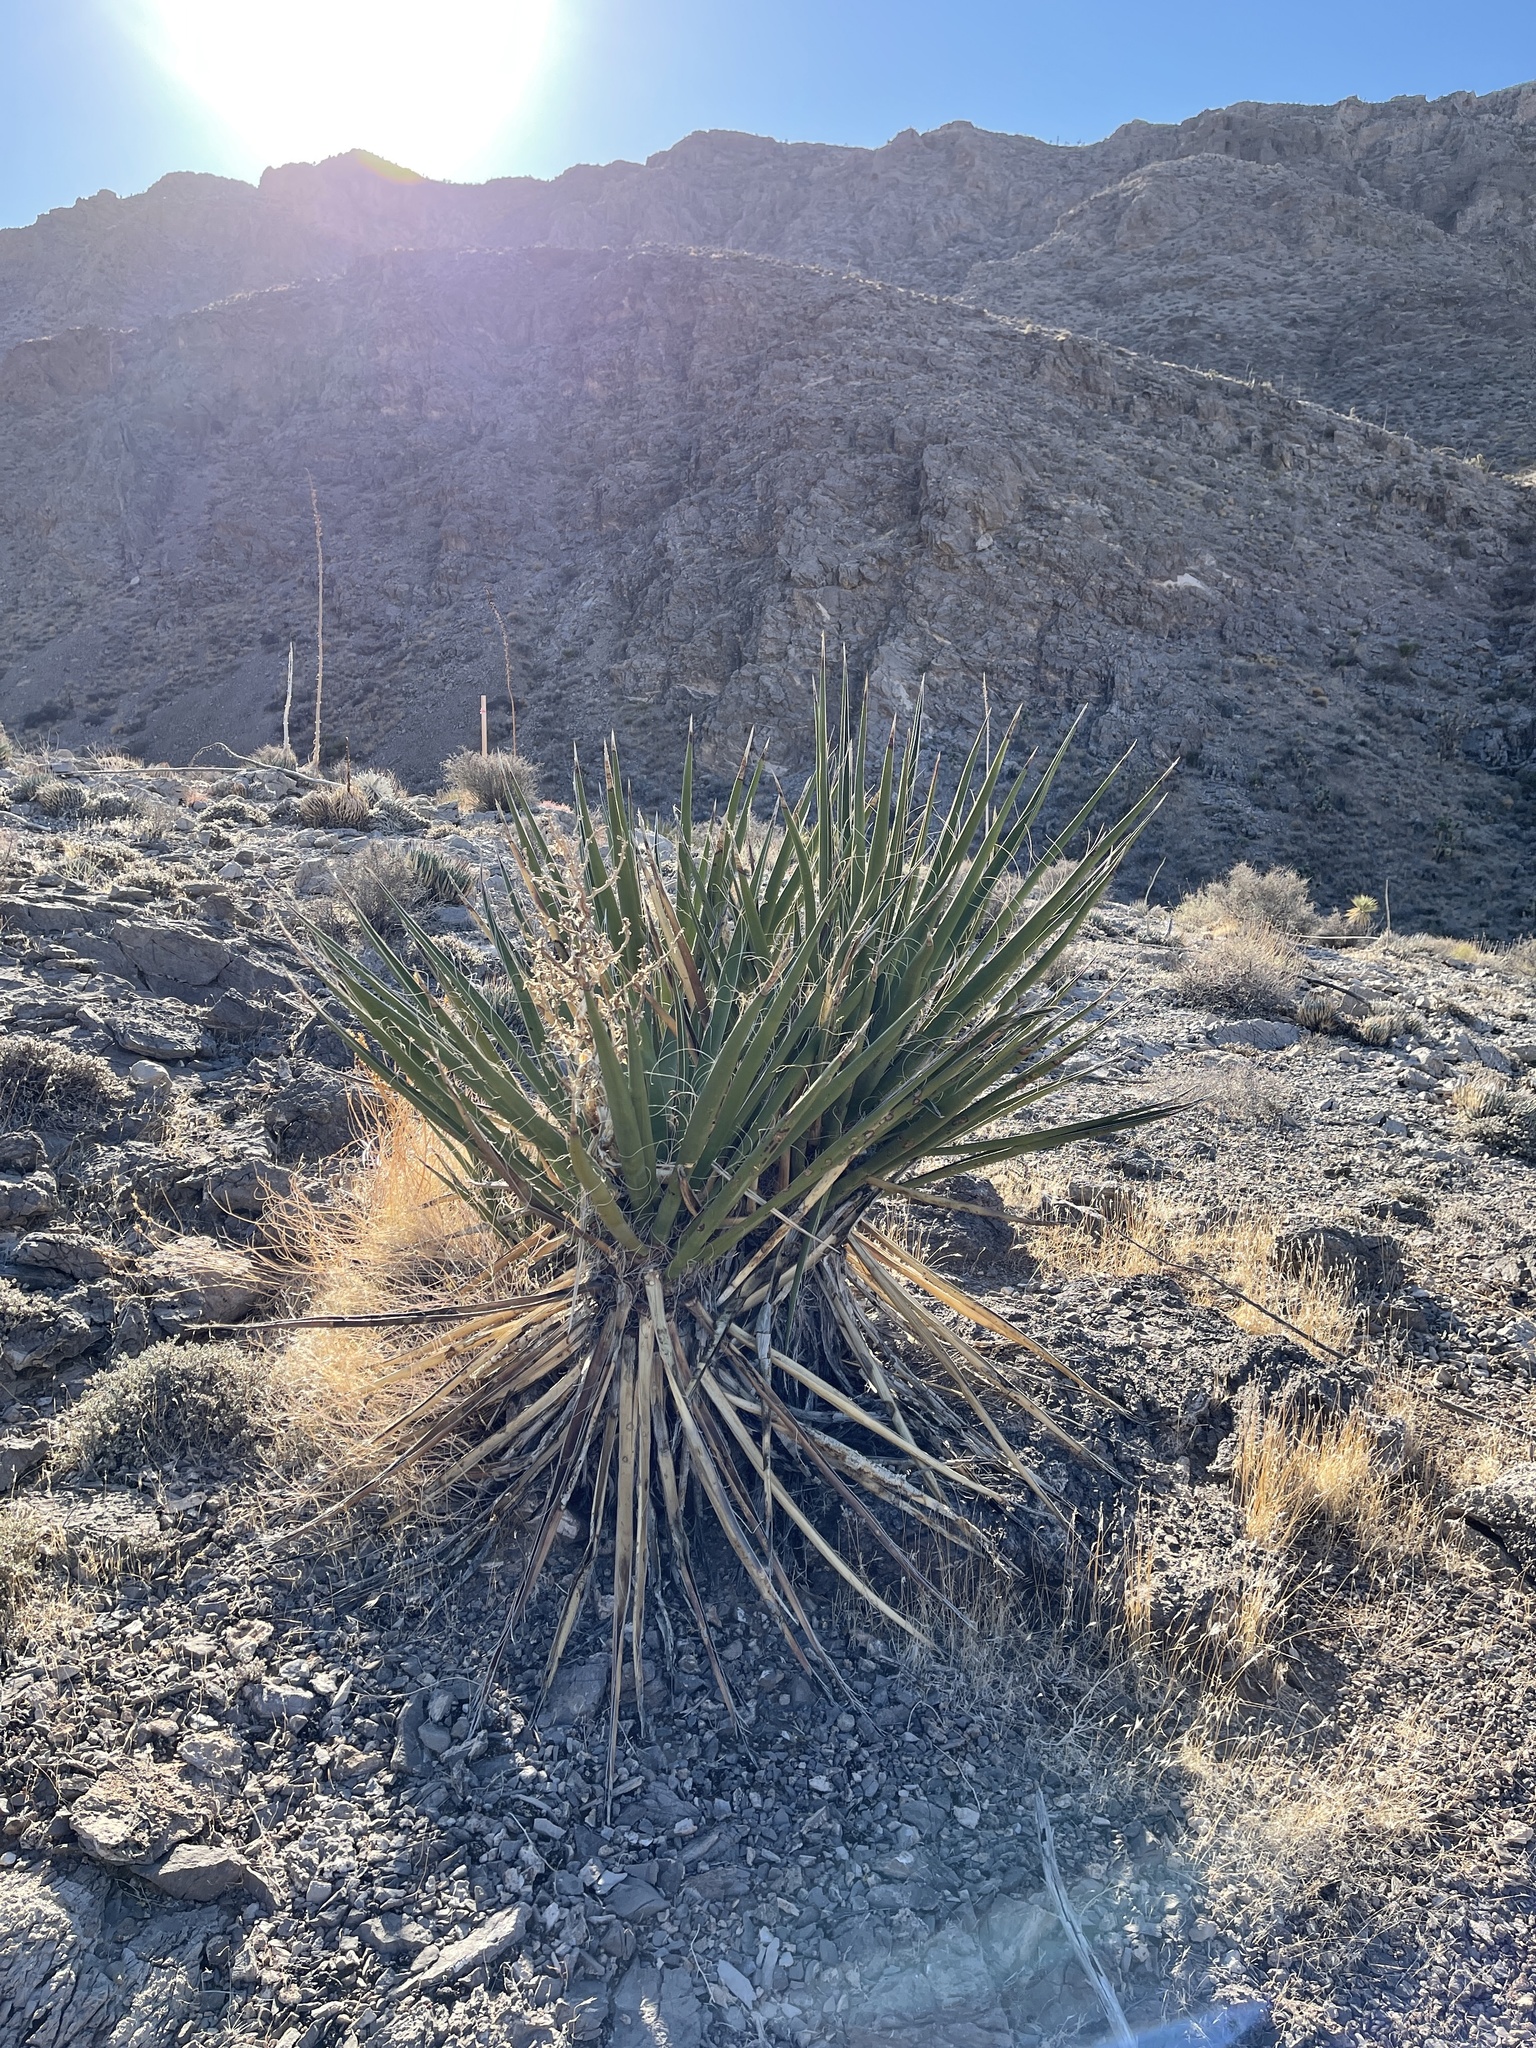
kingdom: Plantae
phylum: Tracheophyta
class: Liliopsida
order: Asparagales
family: Asparagaceae
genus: Yucca
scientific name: Yucca schidigera
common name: Mojave yucca
